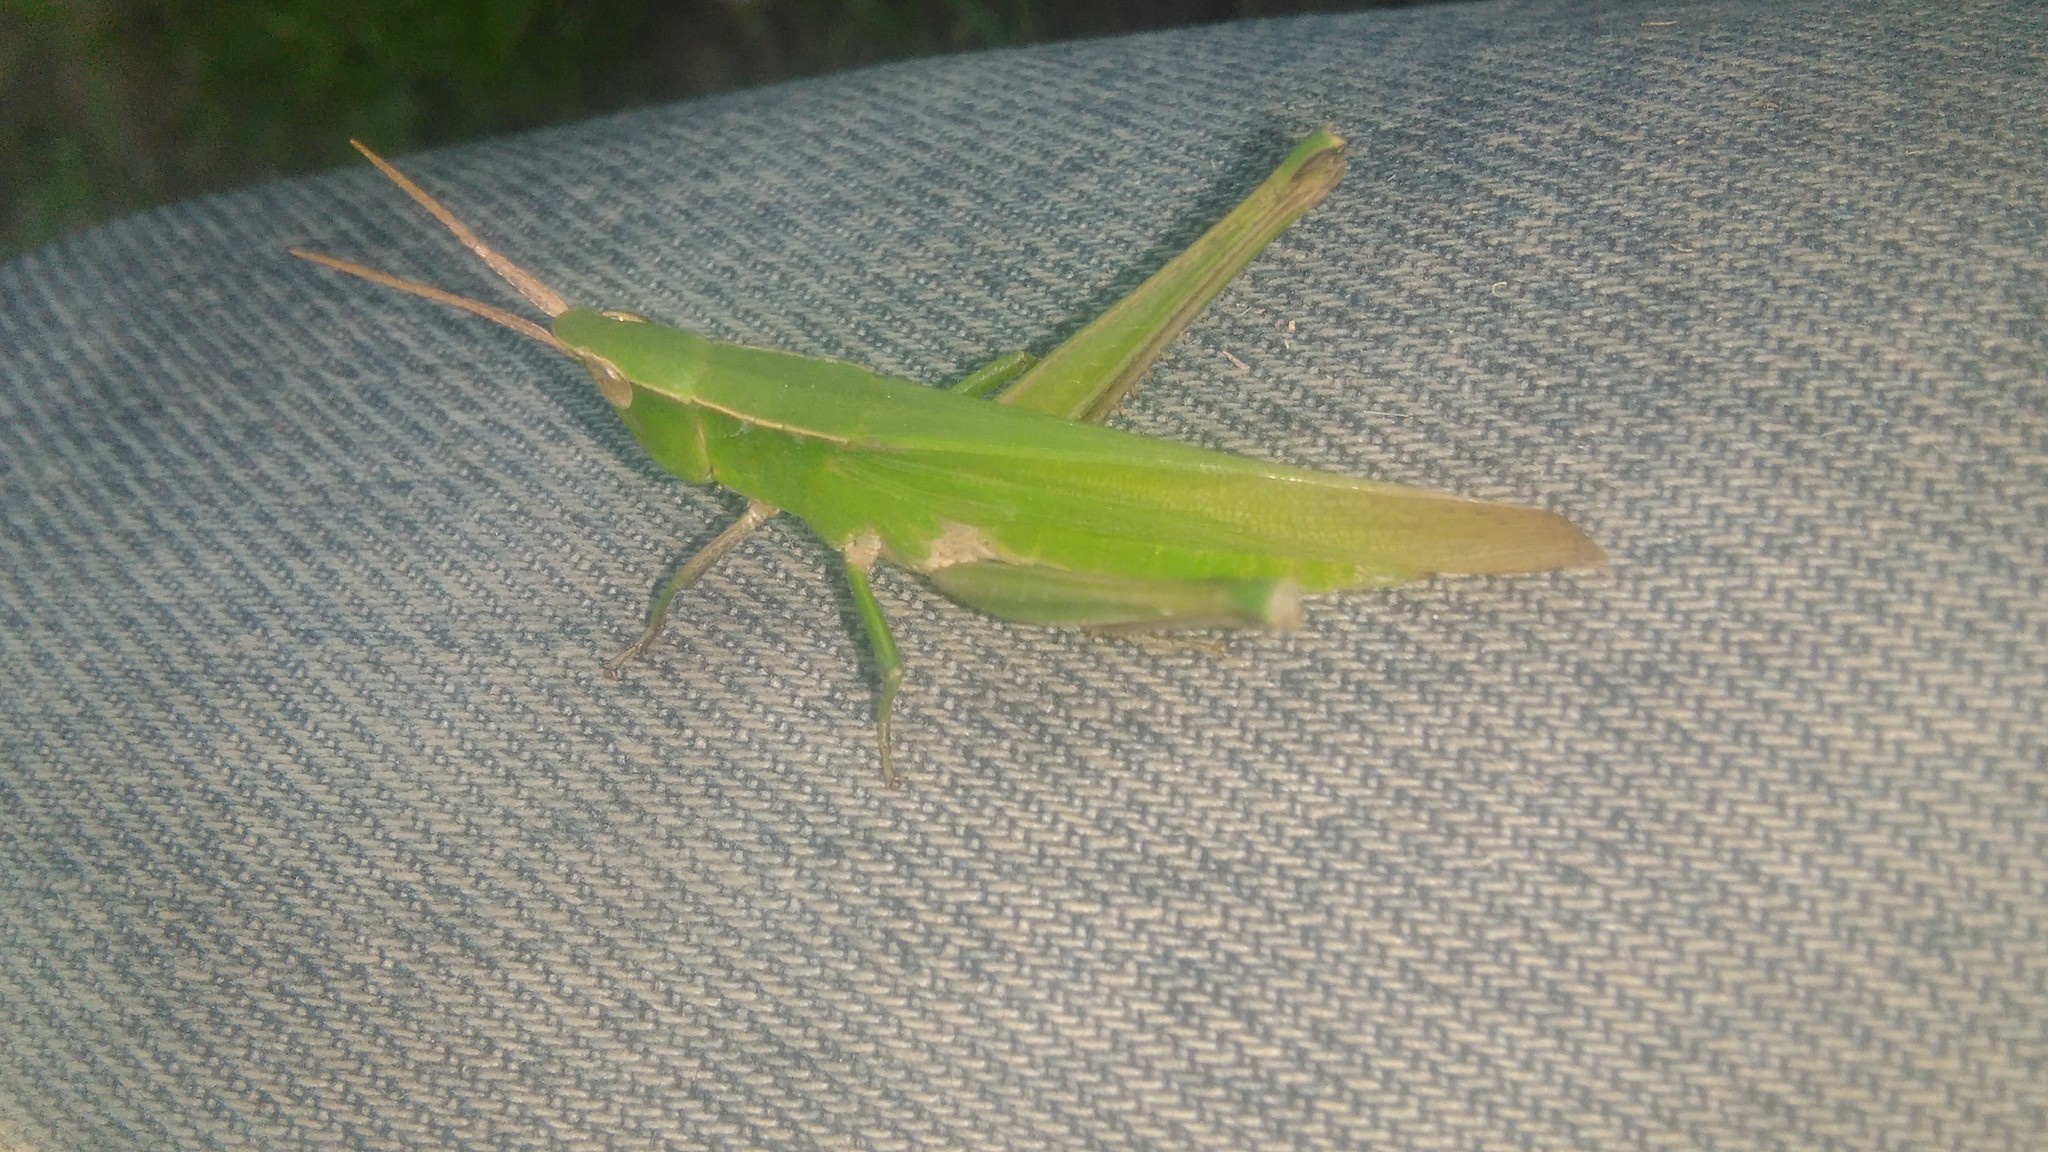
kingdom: Animalia
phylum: Arthropoda
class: Insecta
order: Orthoptera
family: Acrididae
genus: Metaleptea
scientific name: Metaleptea adspersa
